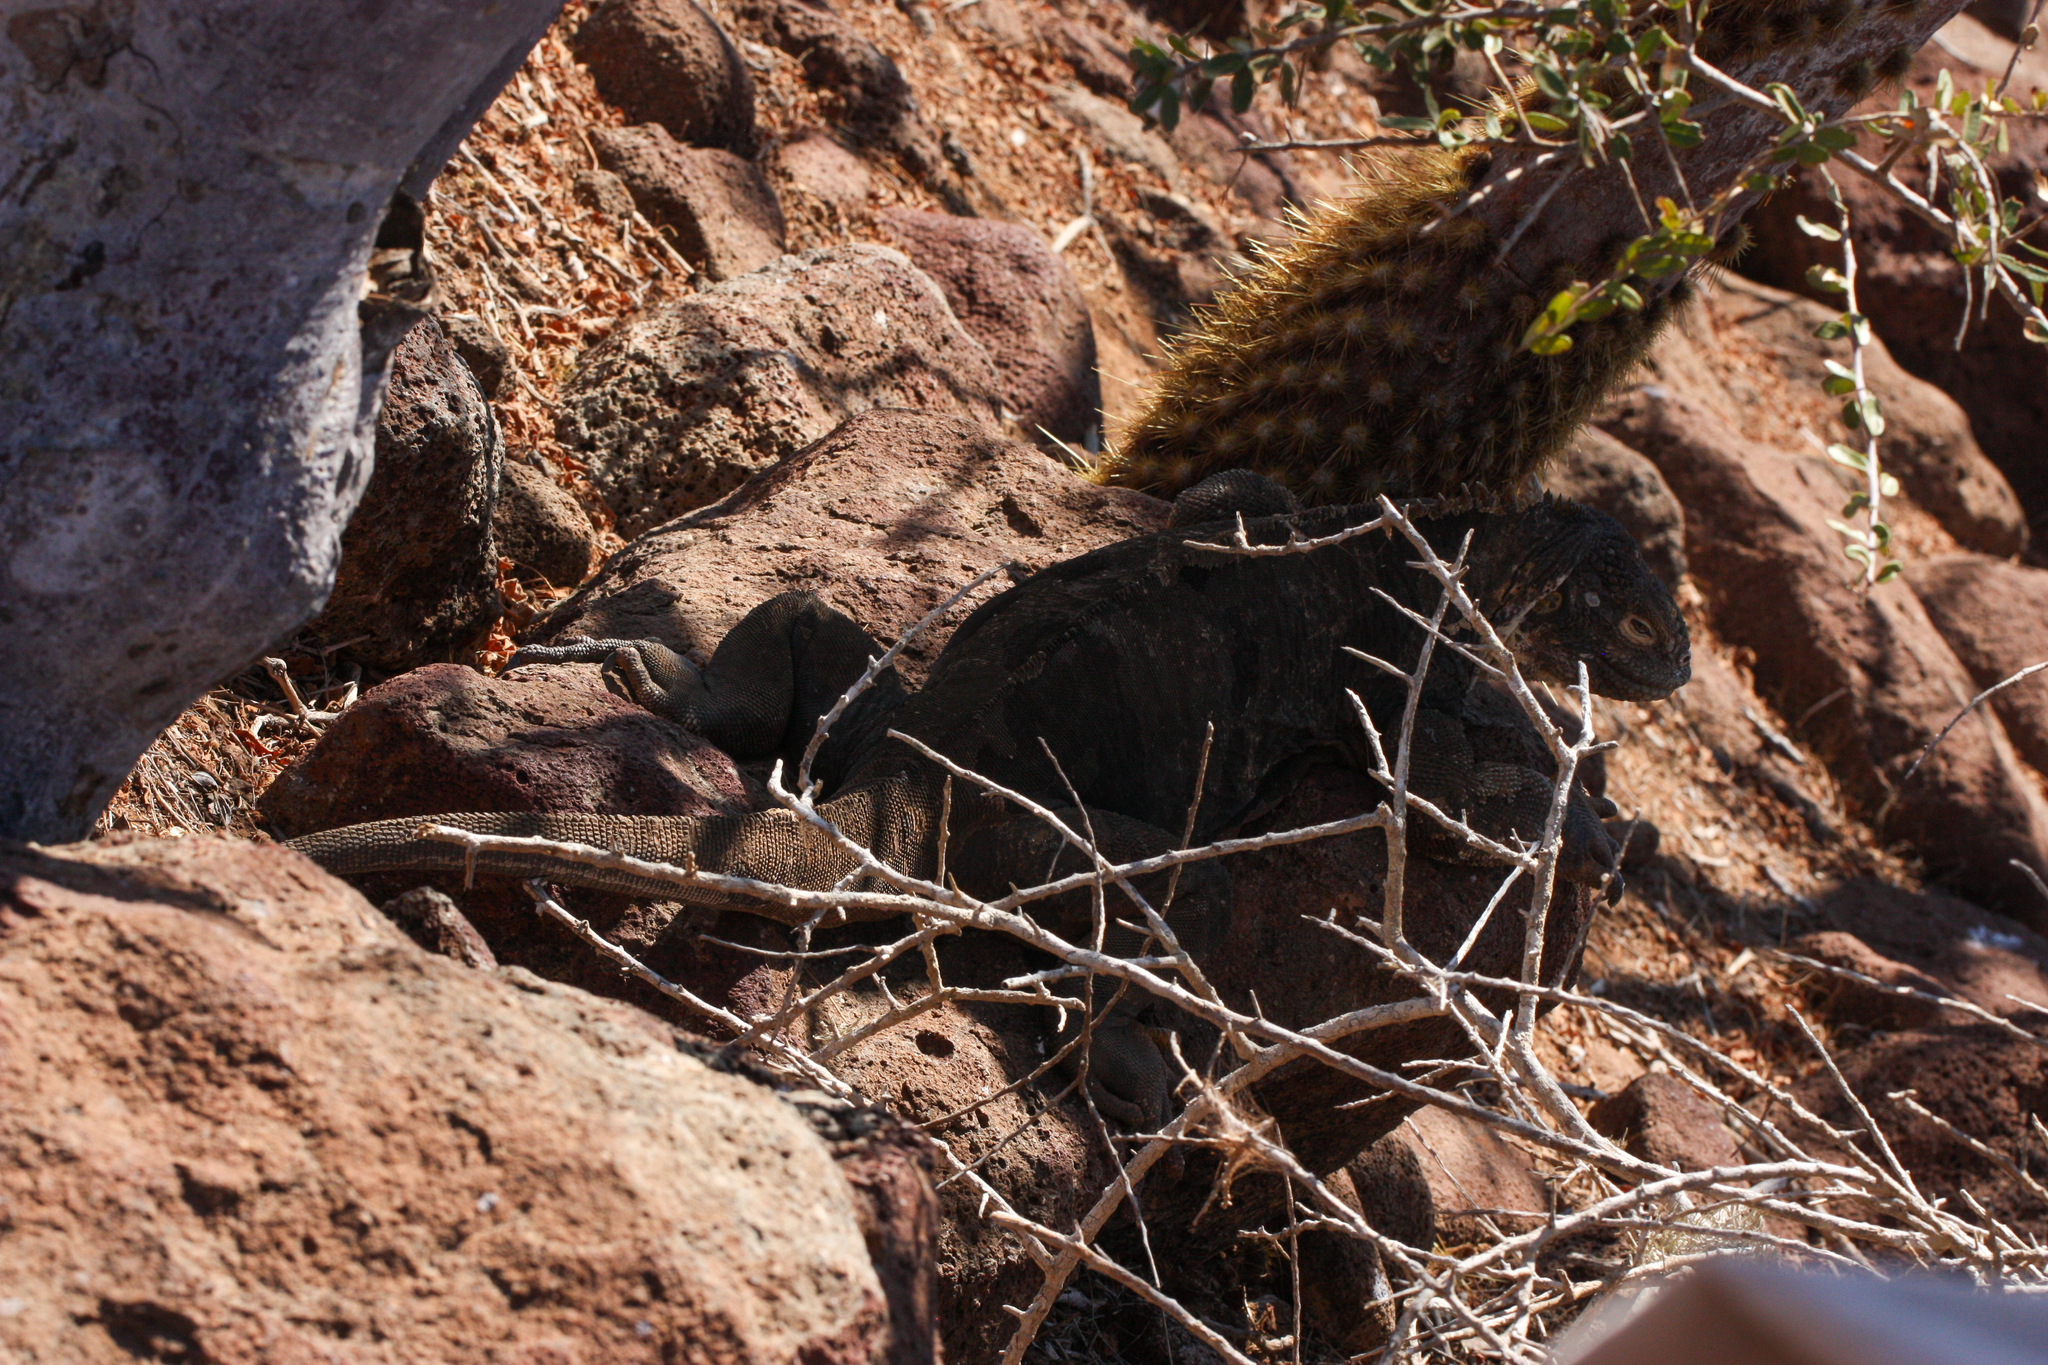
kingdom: Animalia
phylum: Chordata
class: Squamata
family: Iguanidae
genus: Conolophus
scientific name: Conolophus subcristatus
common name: Galapagos land iguana
